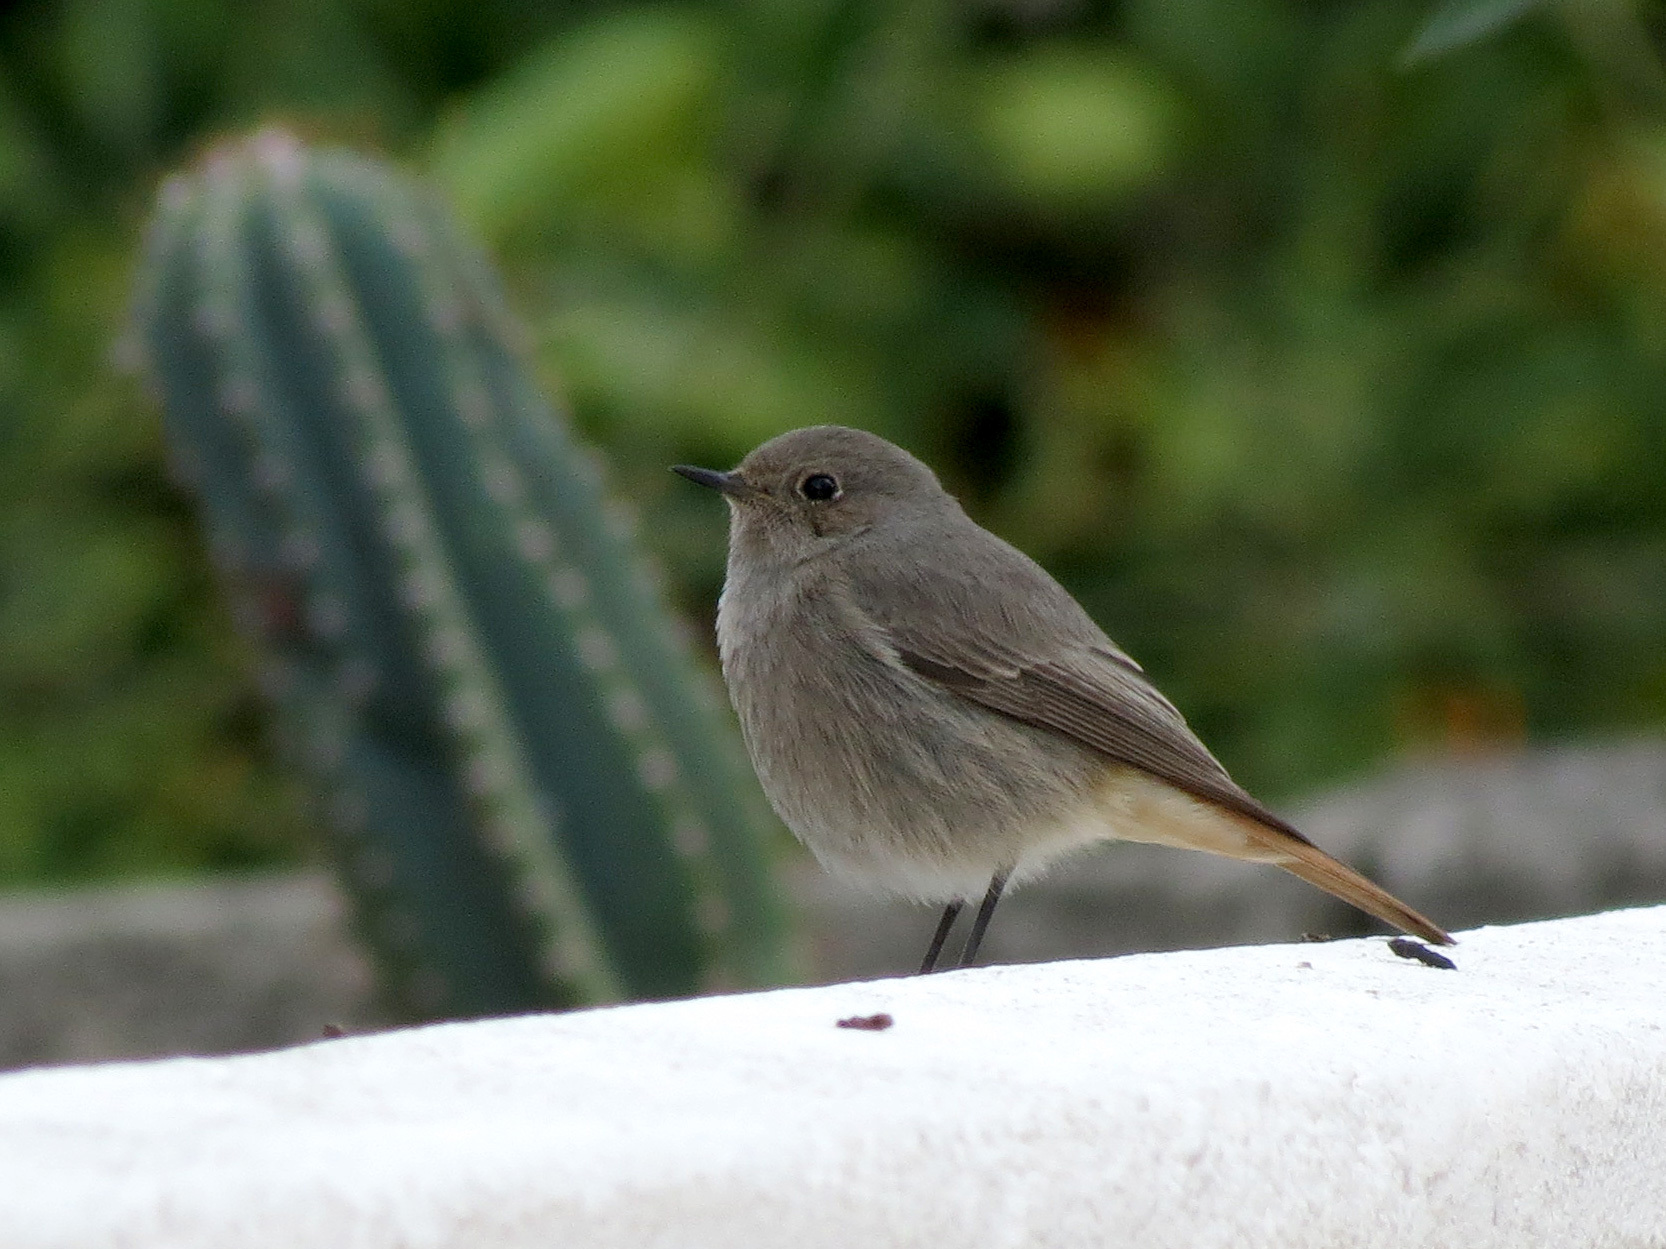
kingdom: Animalia
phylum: Chordata
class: Aves
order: Passeriformes
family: Muscicapidae
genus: Phoenicurus
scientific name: Phoenicurus ochruros
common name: Black redstart
